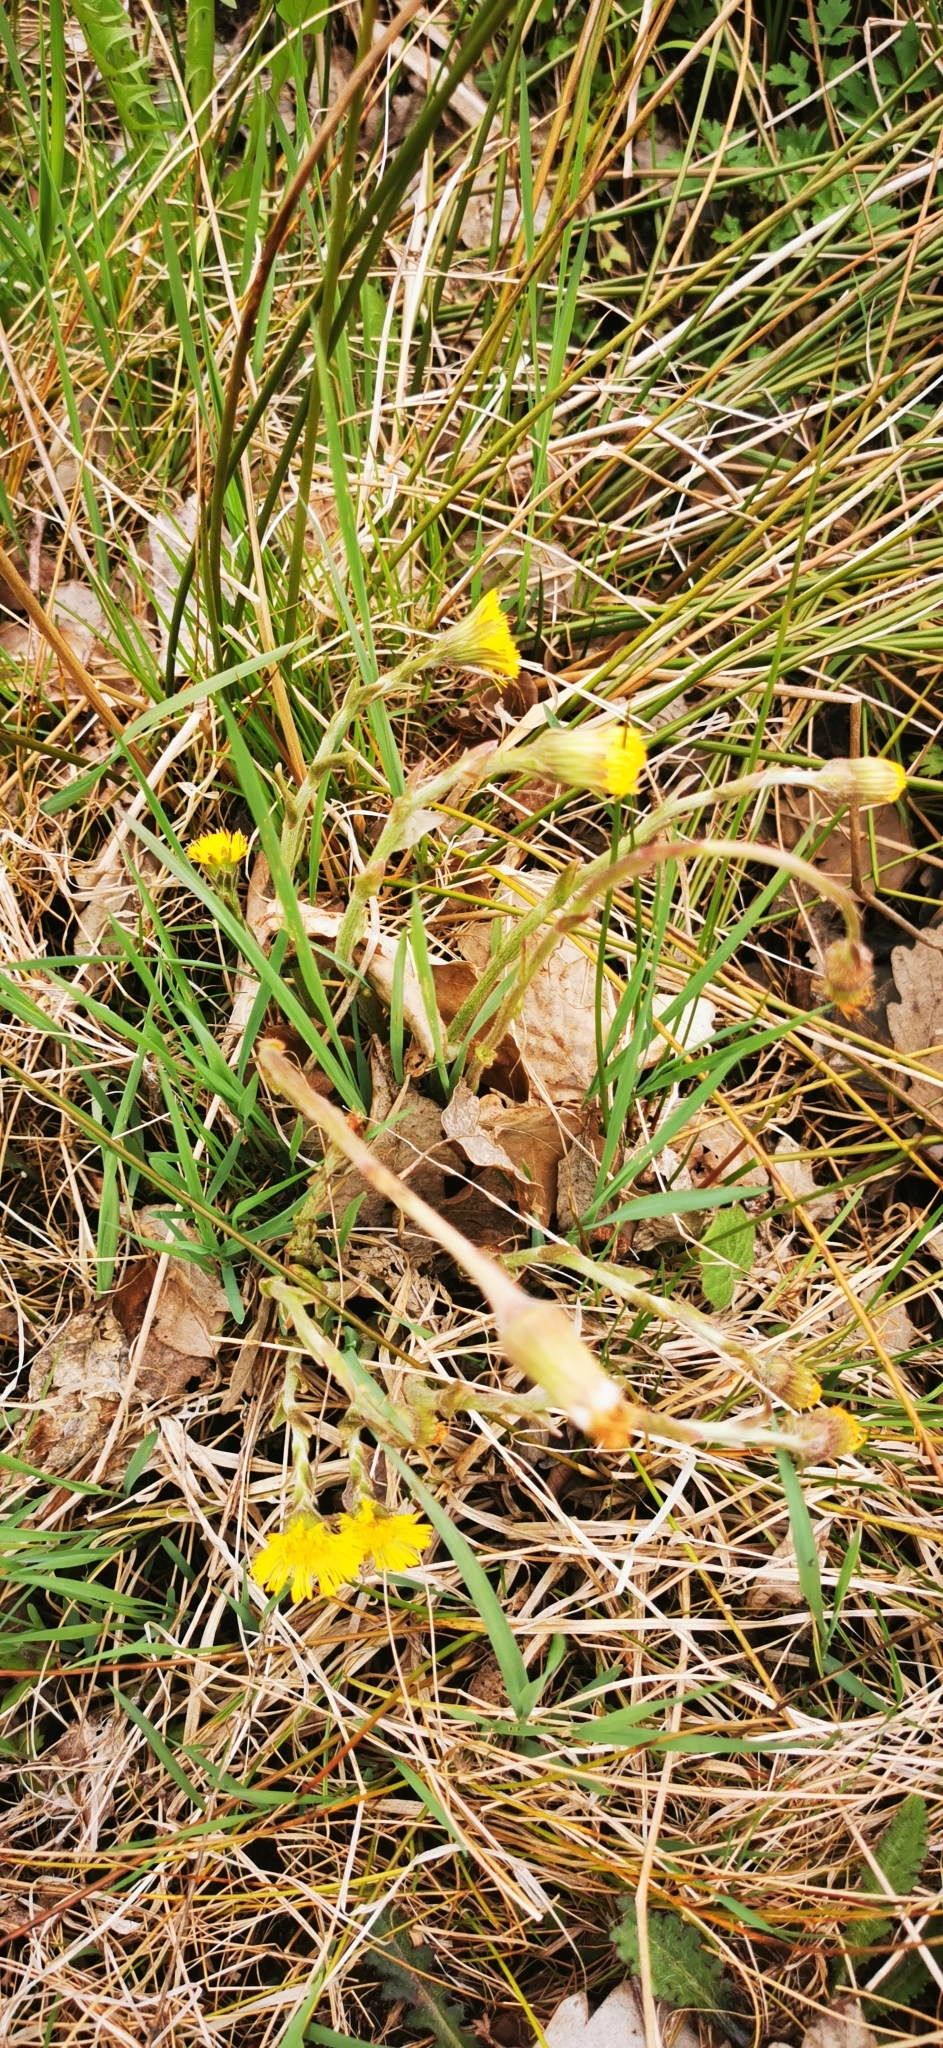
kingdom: Plantae
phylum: Tracheophyta
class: Magnoliopsida
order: Asterales
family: Asteraceae
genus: Tussilago
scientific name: Tussilago farfara
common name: Coltsfoot
